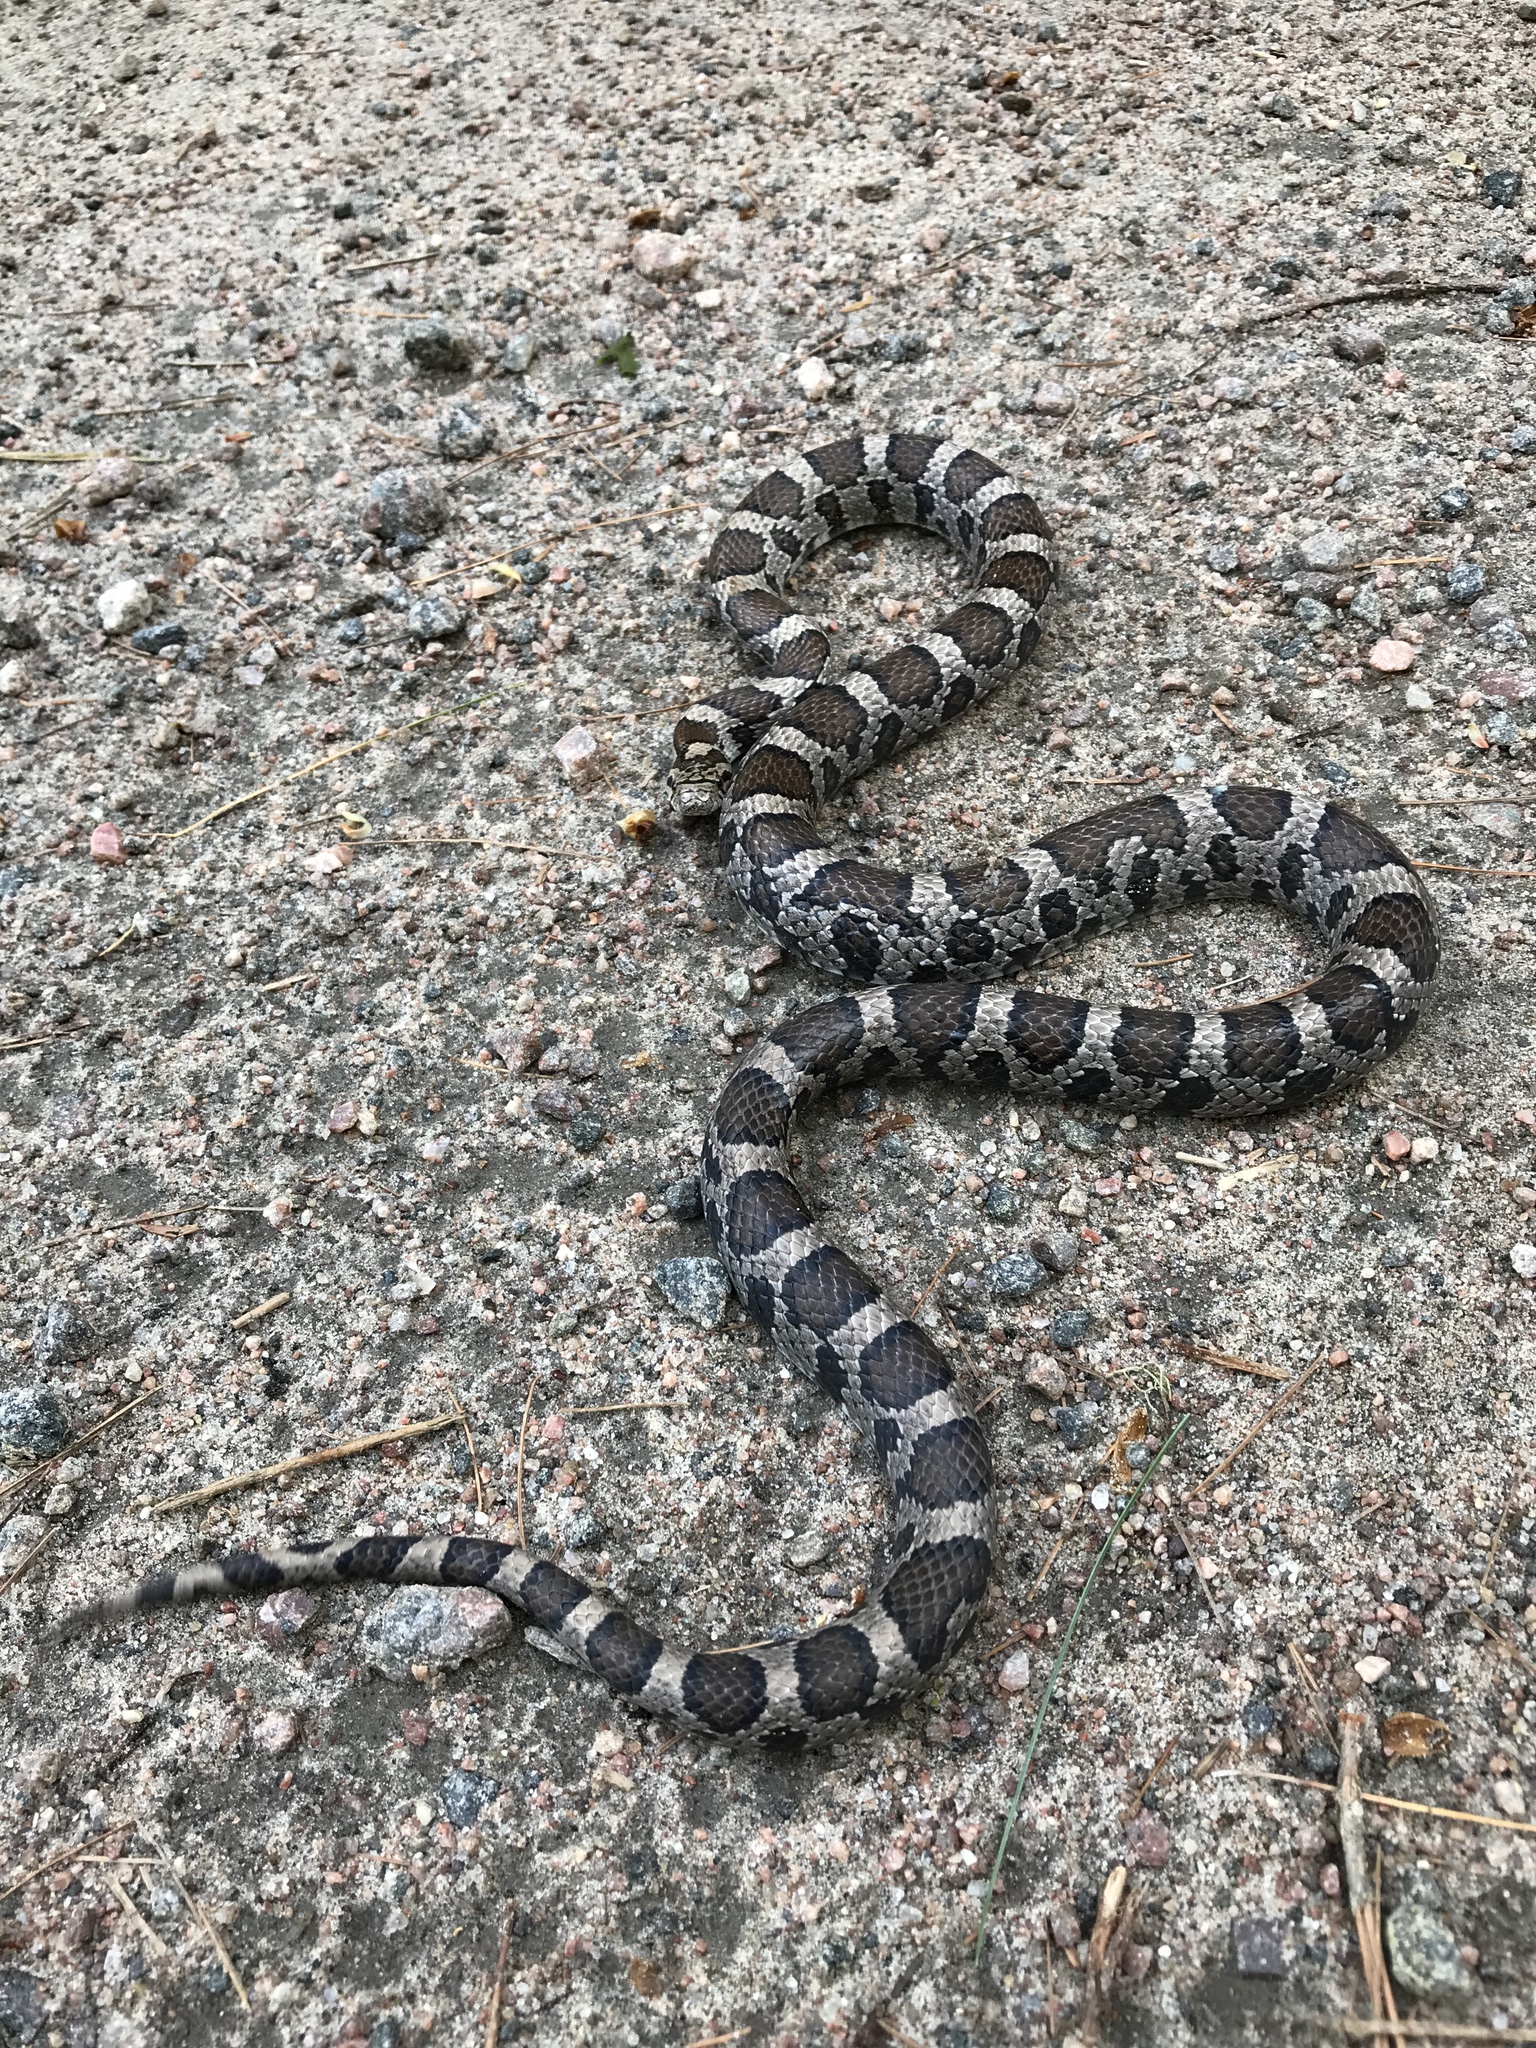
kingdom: Animalia
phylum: Chordata
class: Squamata
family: Colubridae
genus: Lampropeltis
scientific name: Lampropeltis triangulum
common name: Eastern milksnake
